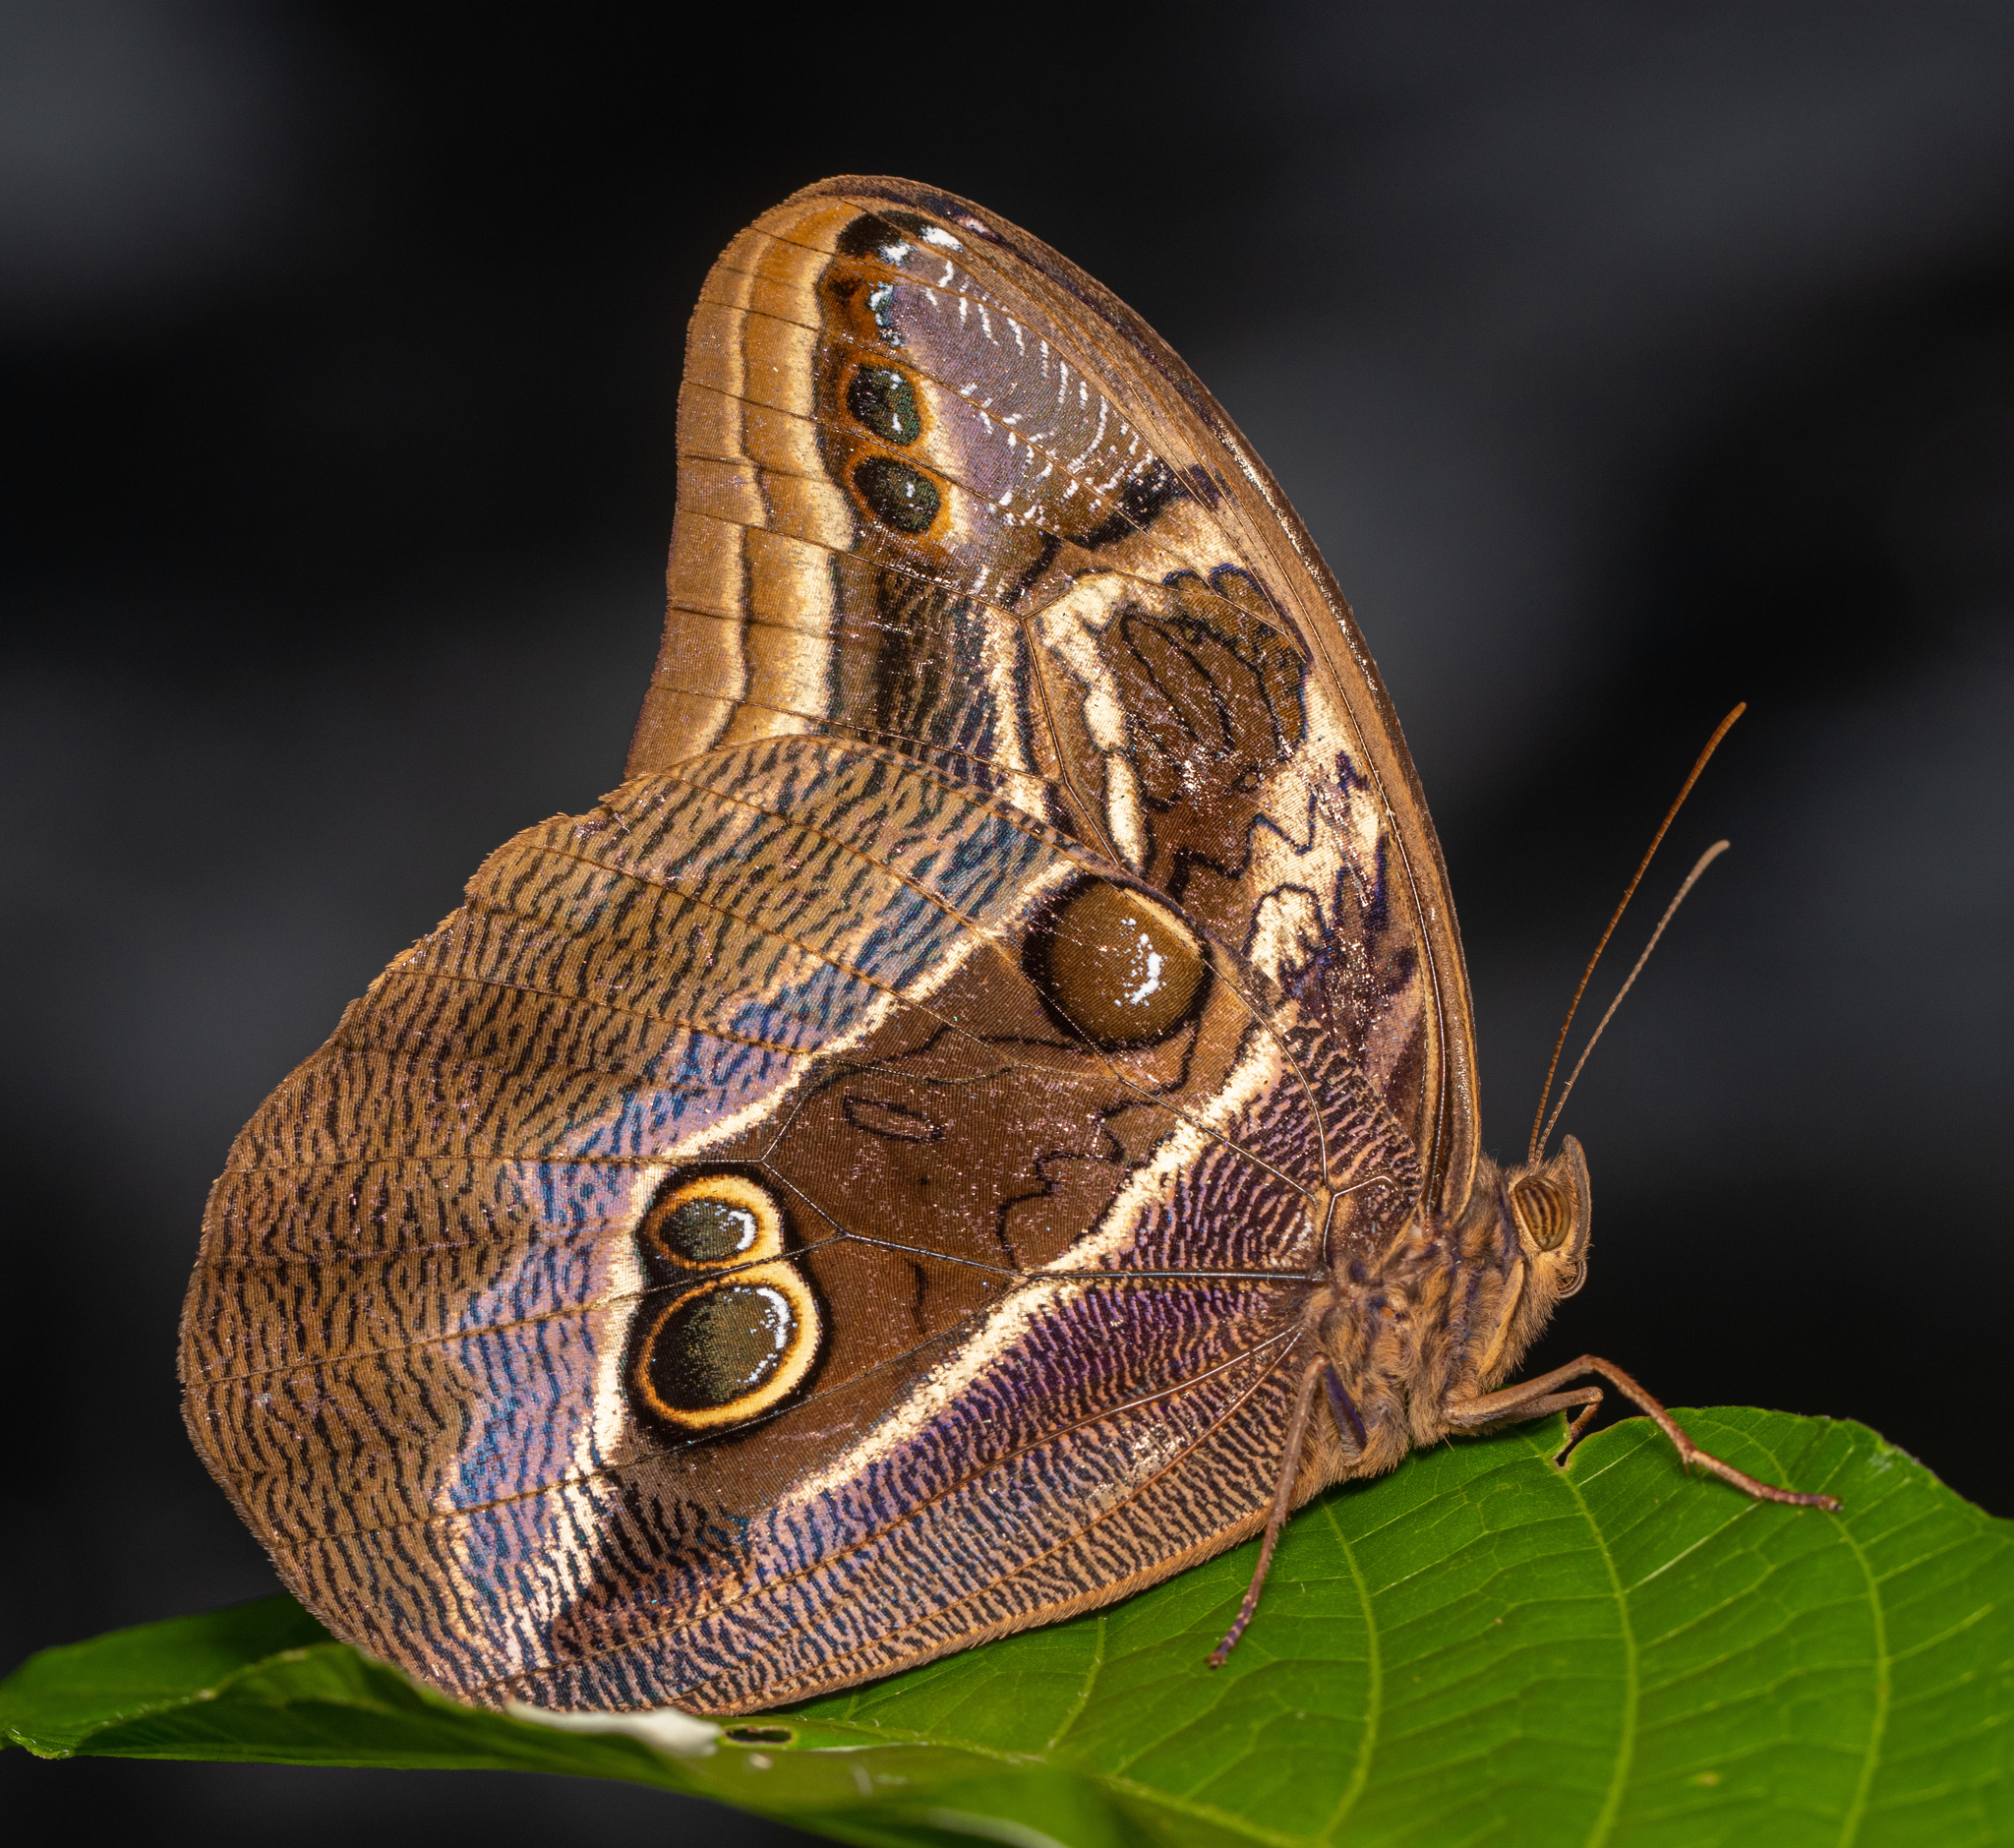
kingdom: Animalia
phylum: Arthropoda
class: Insecta
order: Lepidoptera
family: Nymphalidae
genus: Eryphanis
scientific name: Eryphanis aesacus
